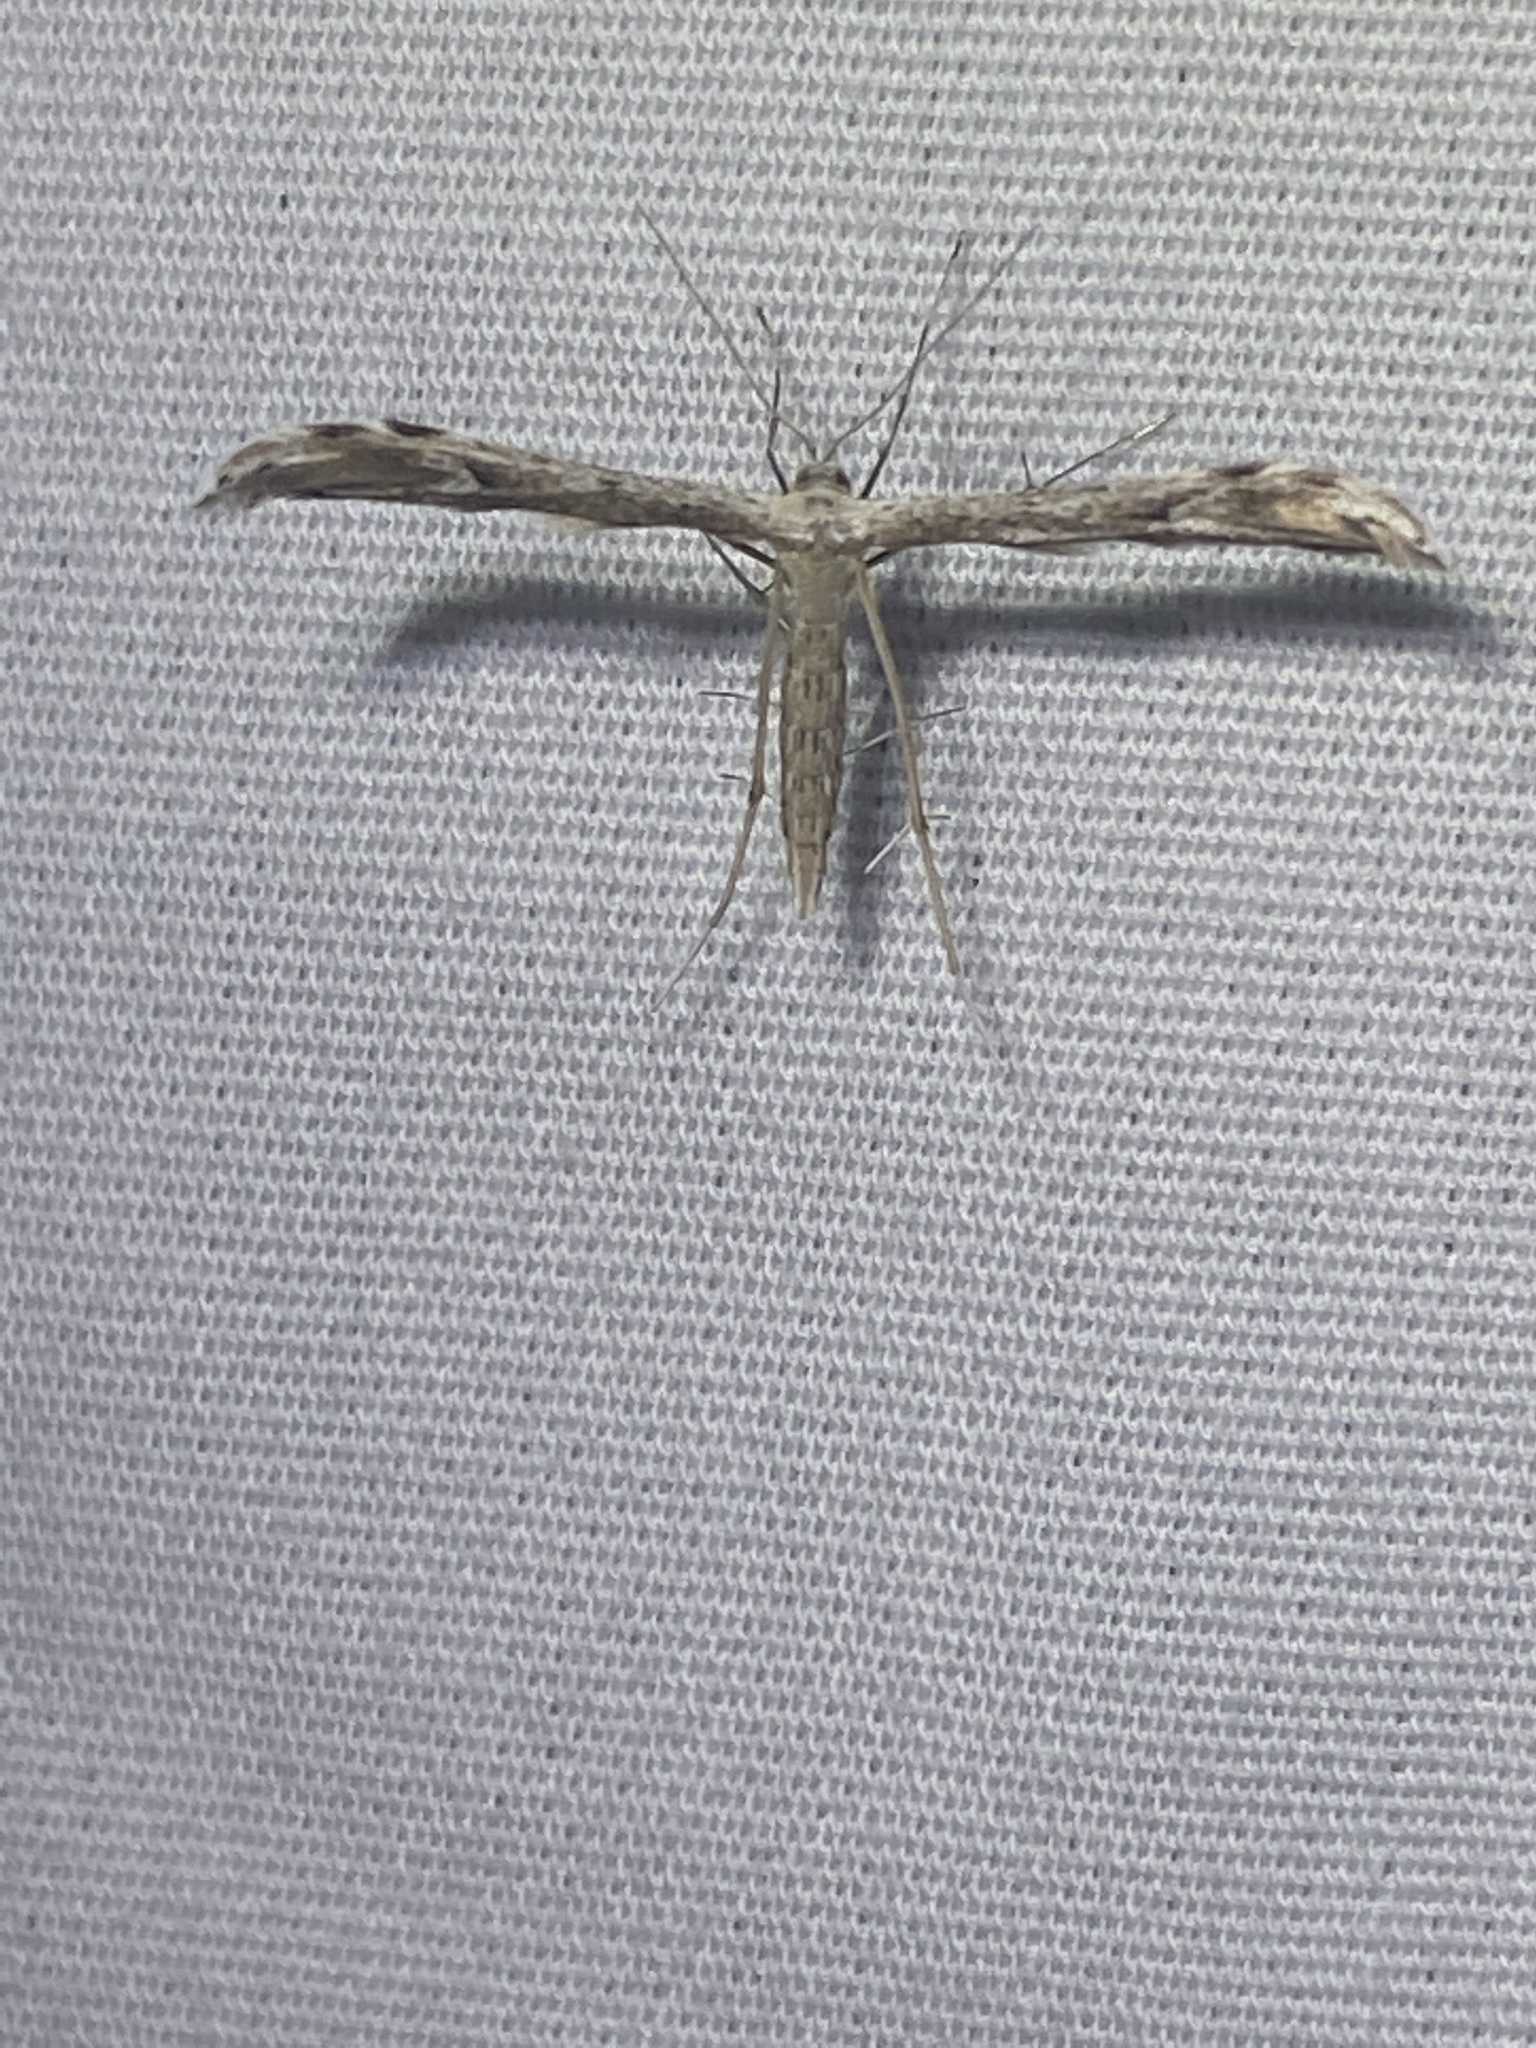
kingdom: Animalia
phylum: Arthropoda
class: Insecta
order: Lepidoptera
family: Pterophoridae
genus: Pselnophorus
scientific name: Pselnophorus belfragei
